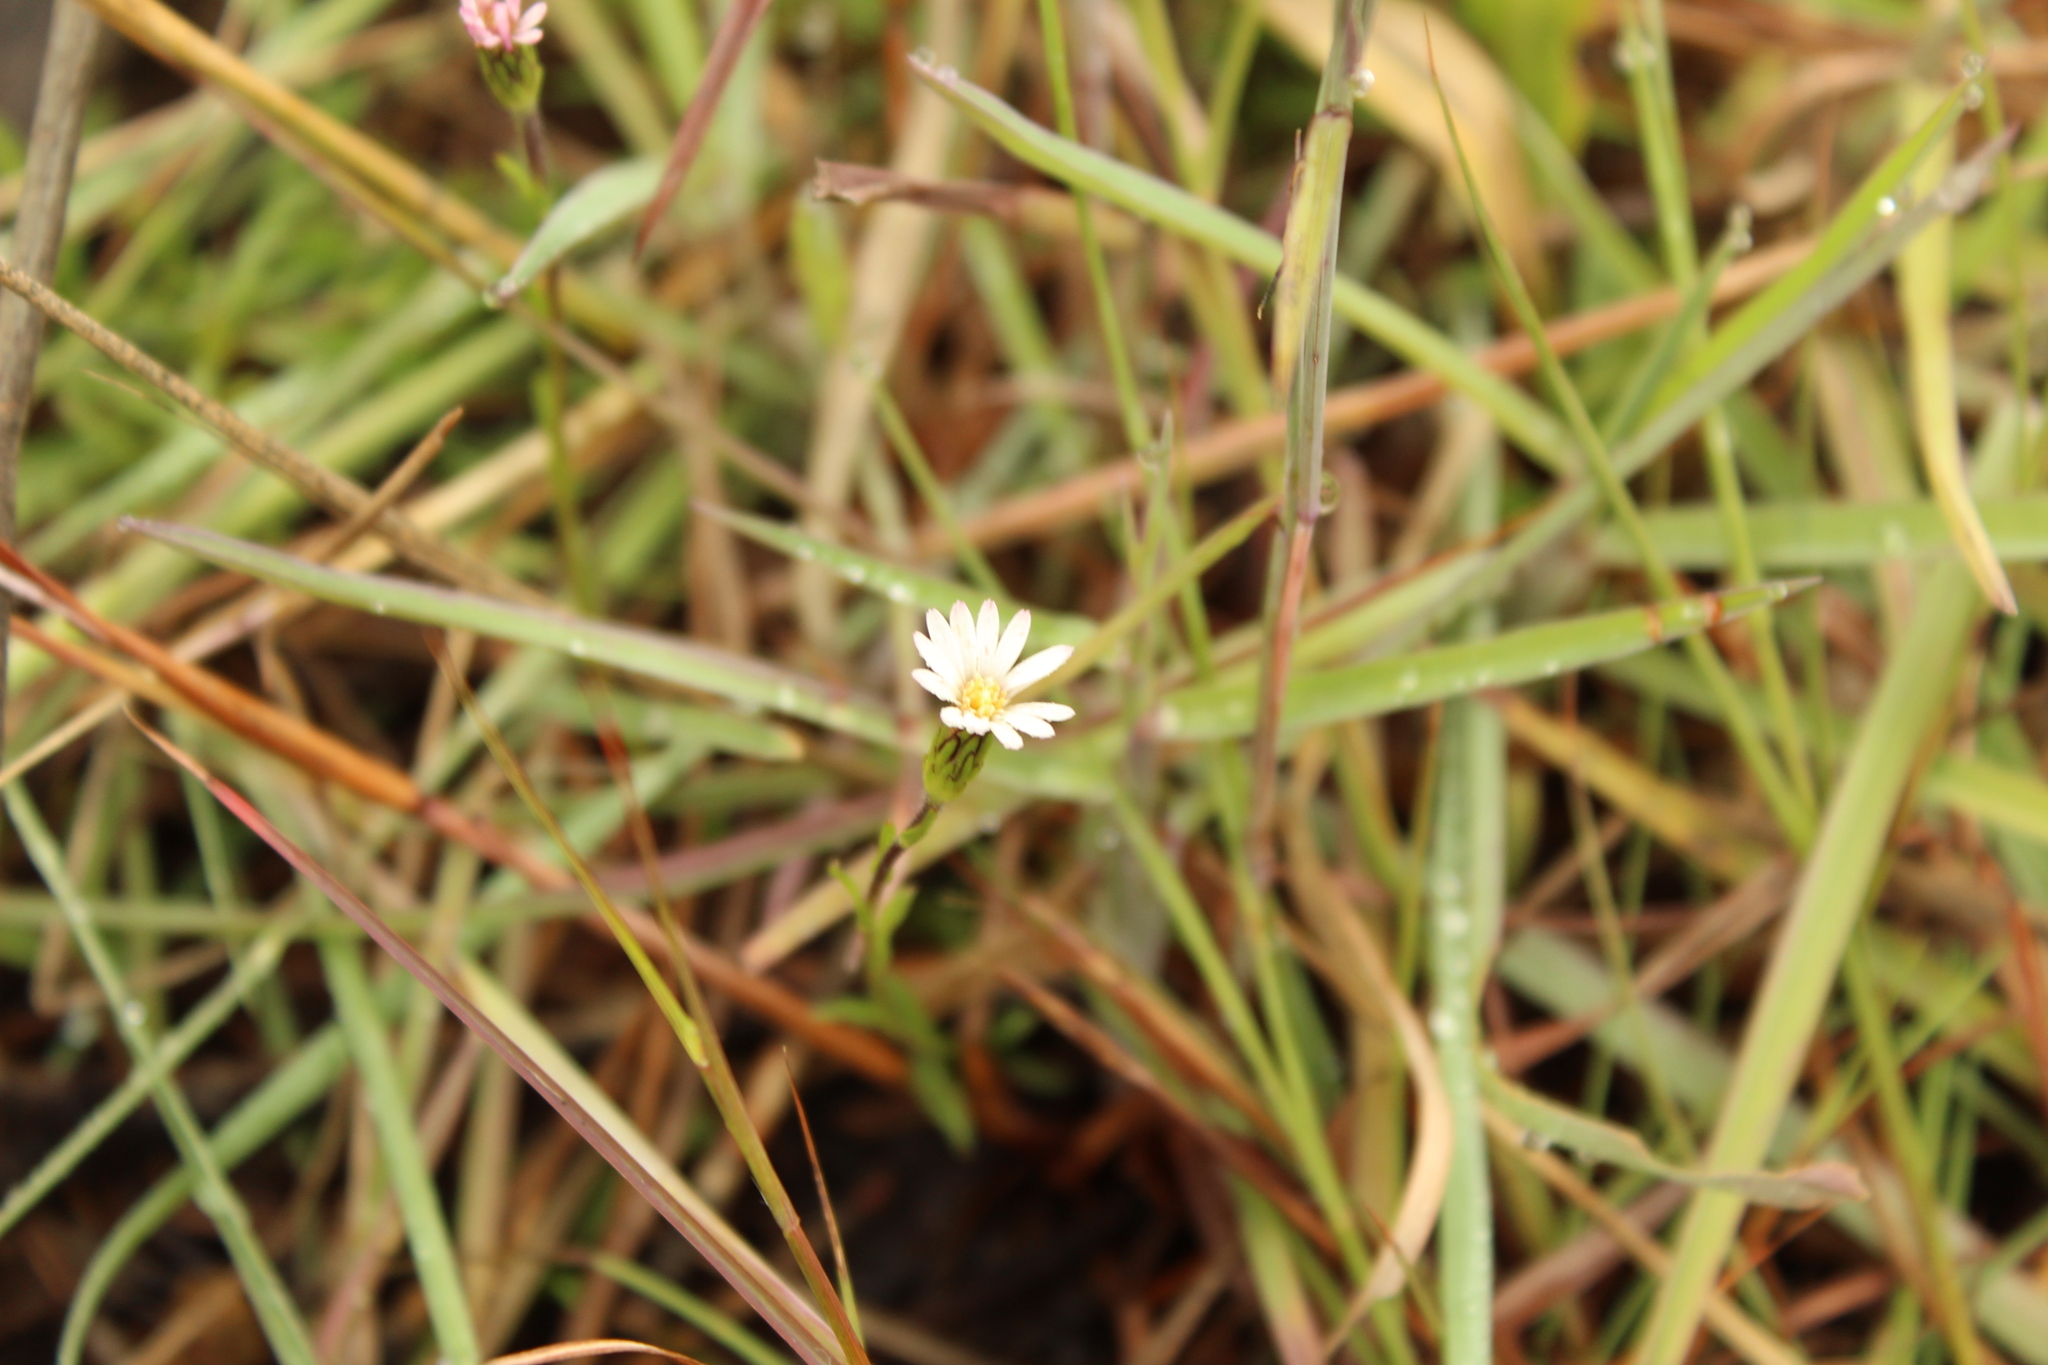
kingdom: Plantae
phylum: Tracheophyta
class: Magnoliopsida
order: Asterales
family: Asteraceae
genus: Noticastrum
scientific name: Noticastrum marginatum
